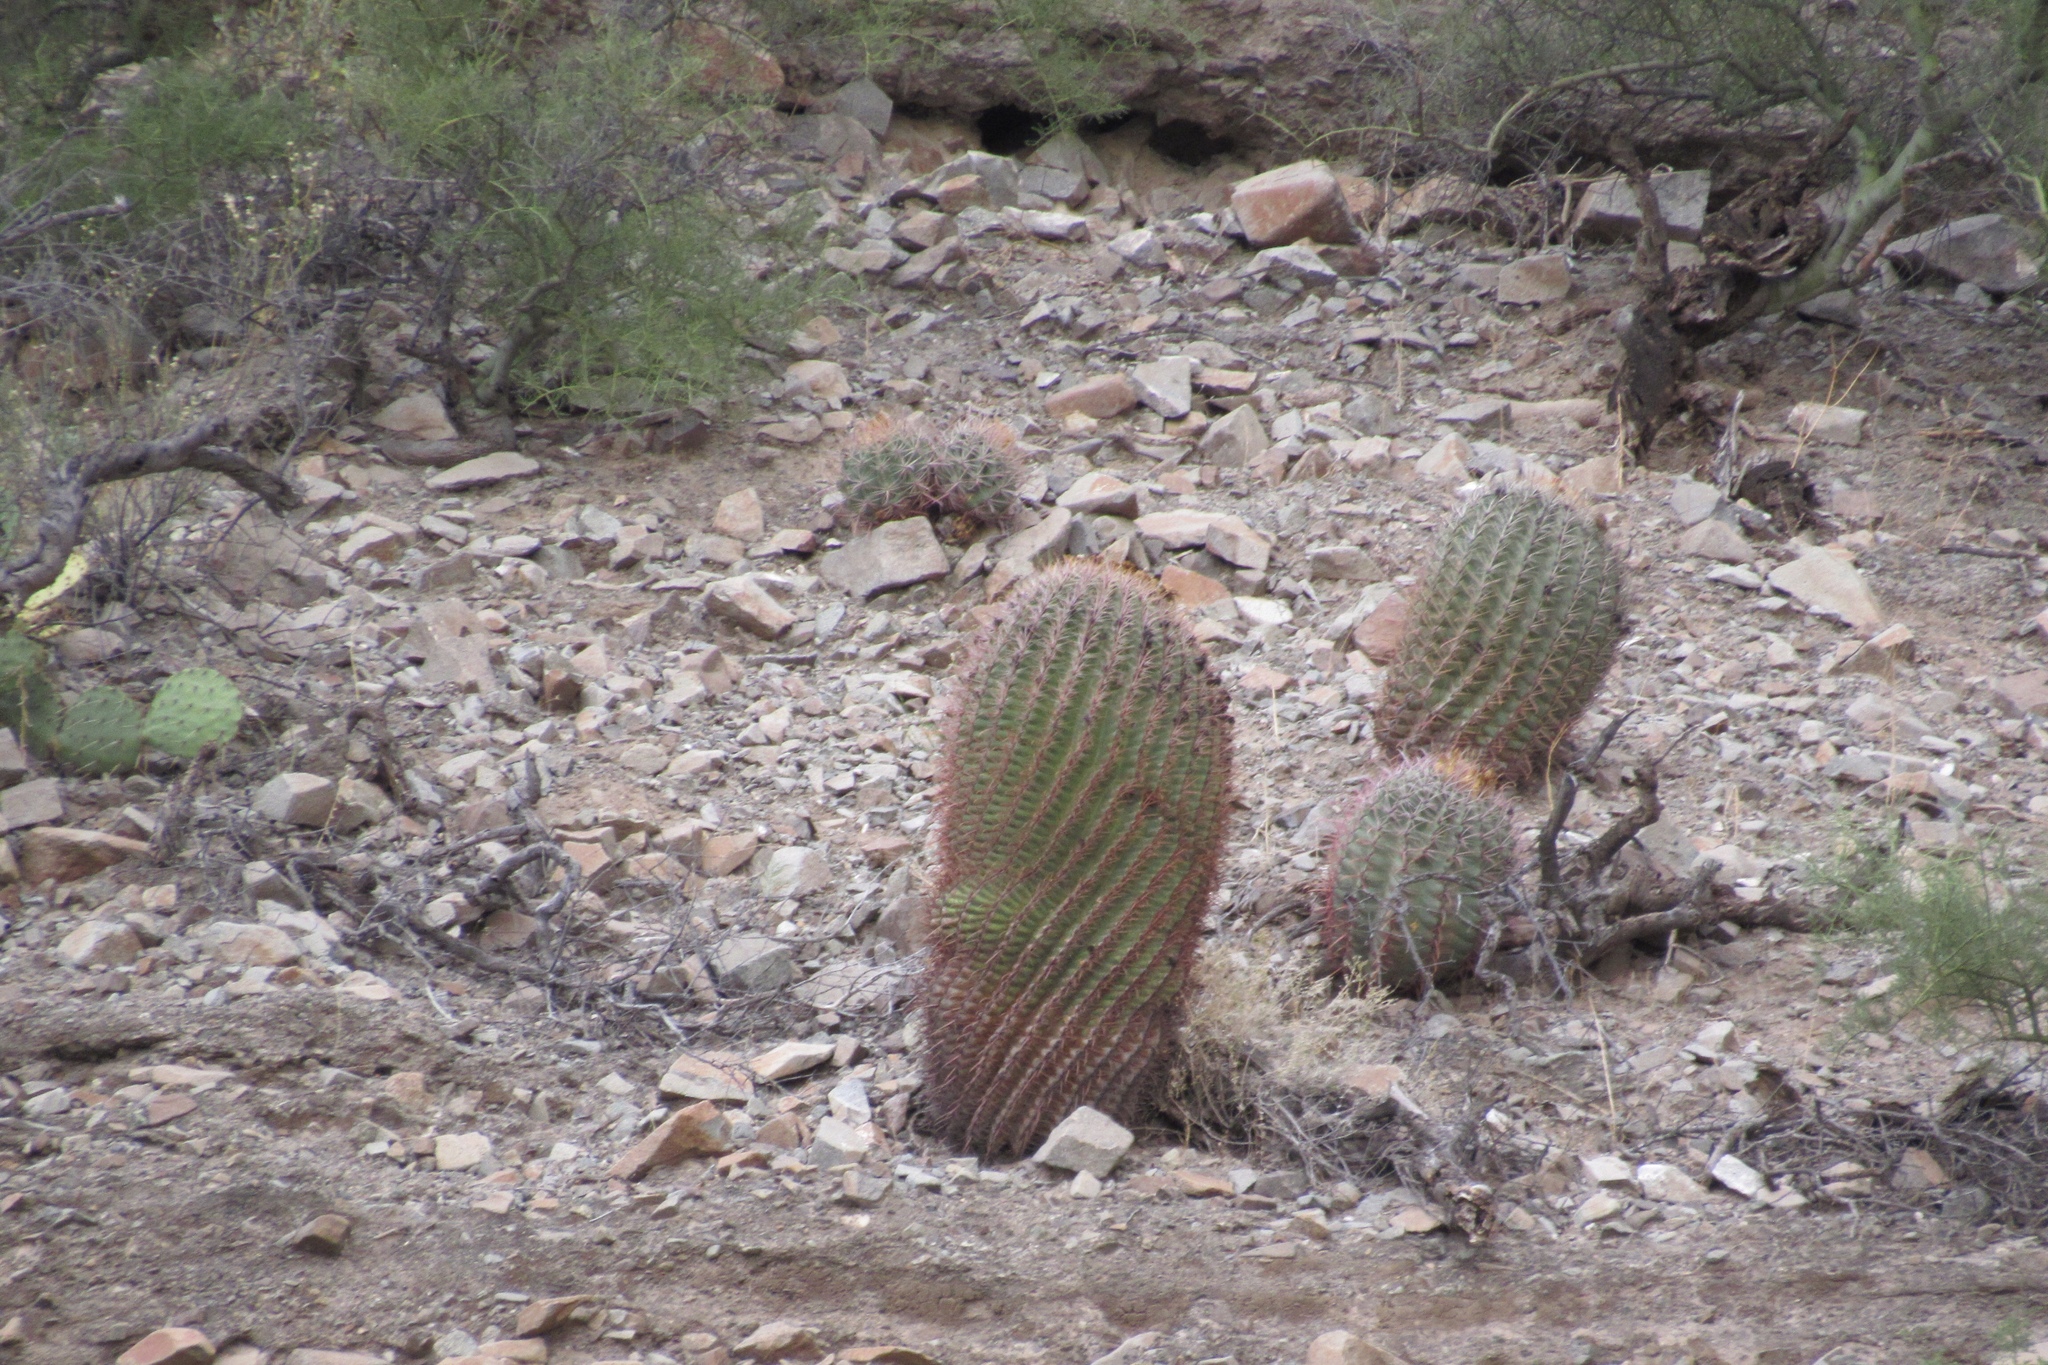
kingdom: Plantae
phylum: Tracheophyta
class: Magnoliopsida
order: Caryophyllales
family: Cactaceae
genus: Ferocactus
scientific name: Ferocactus wislizeni
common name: Candy barrel cactus
